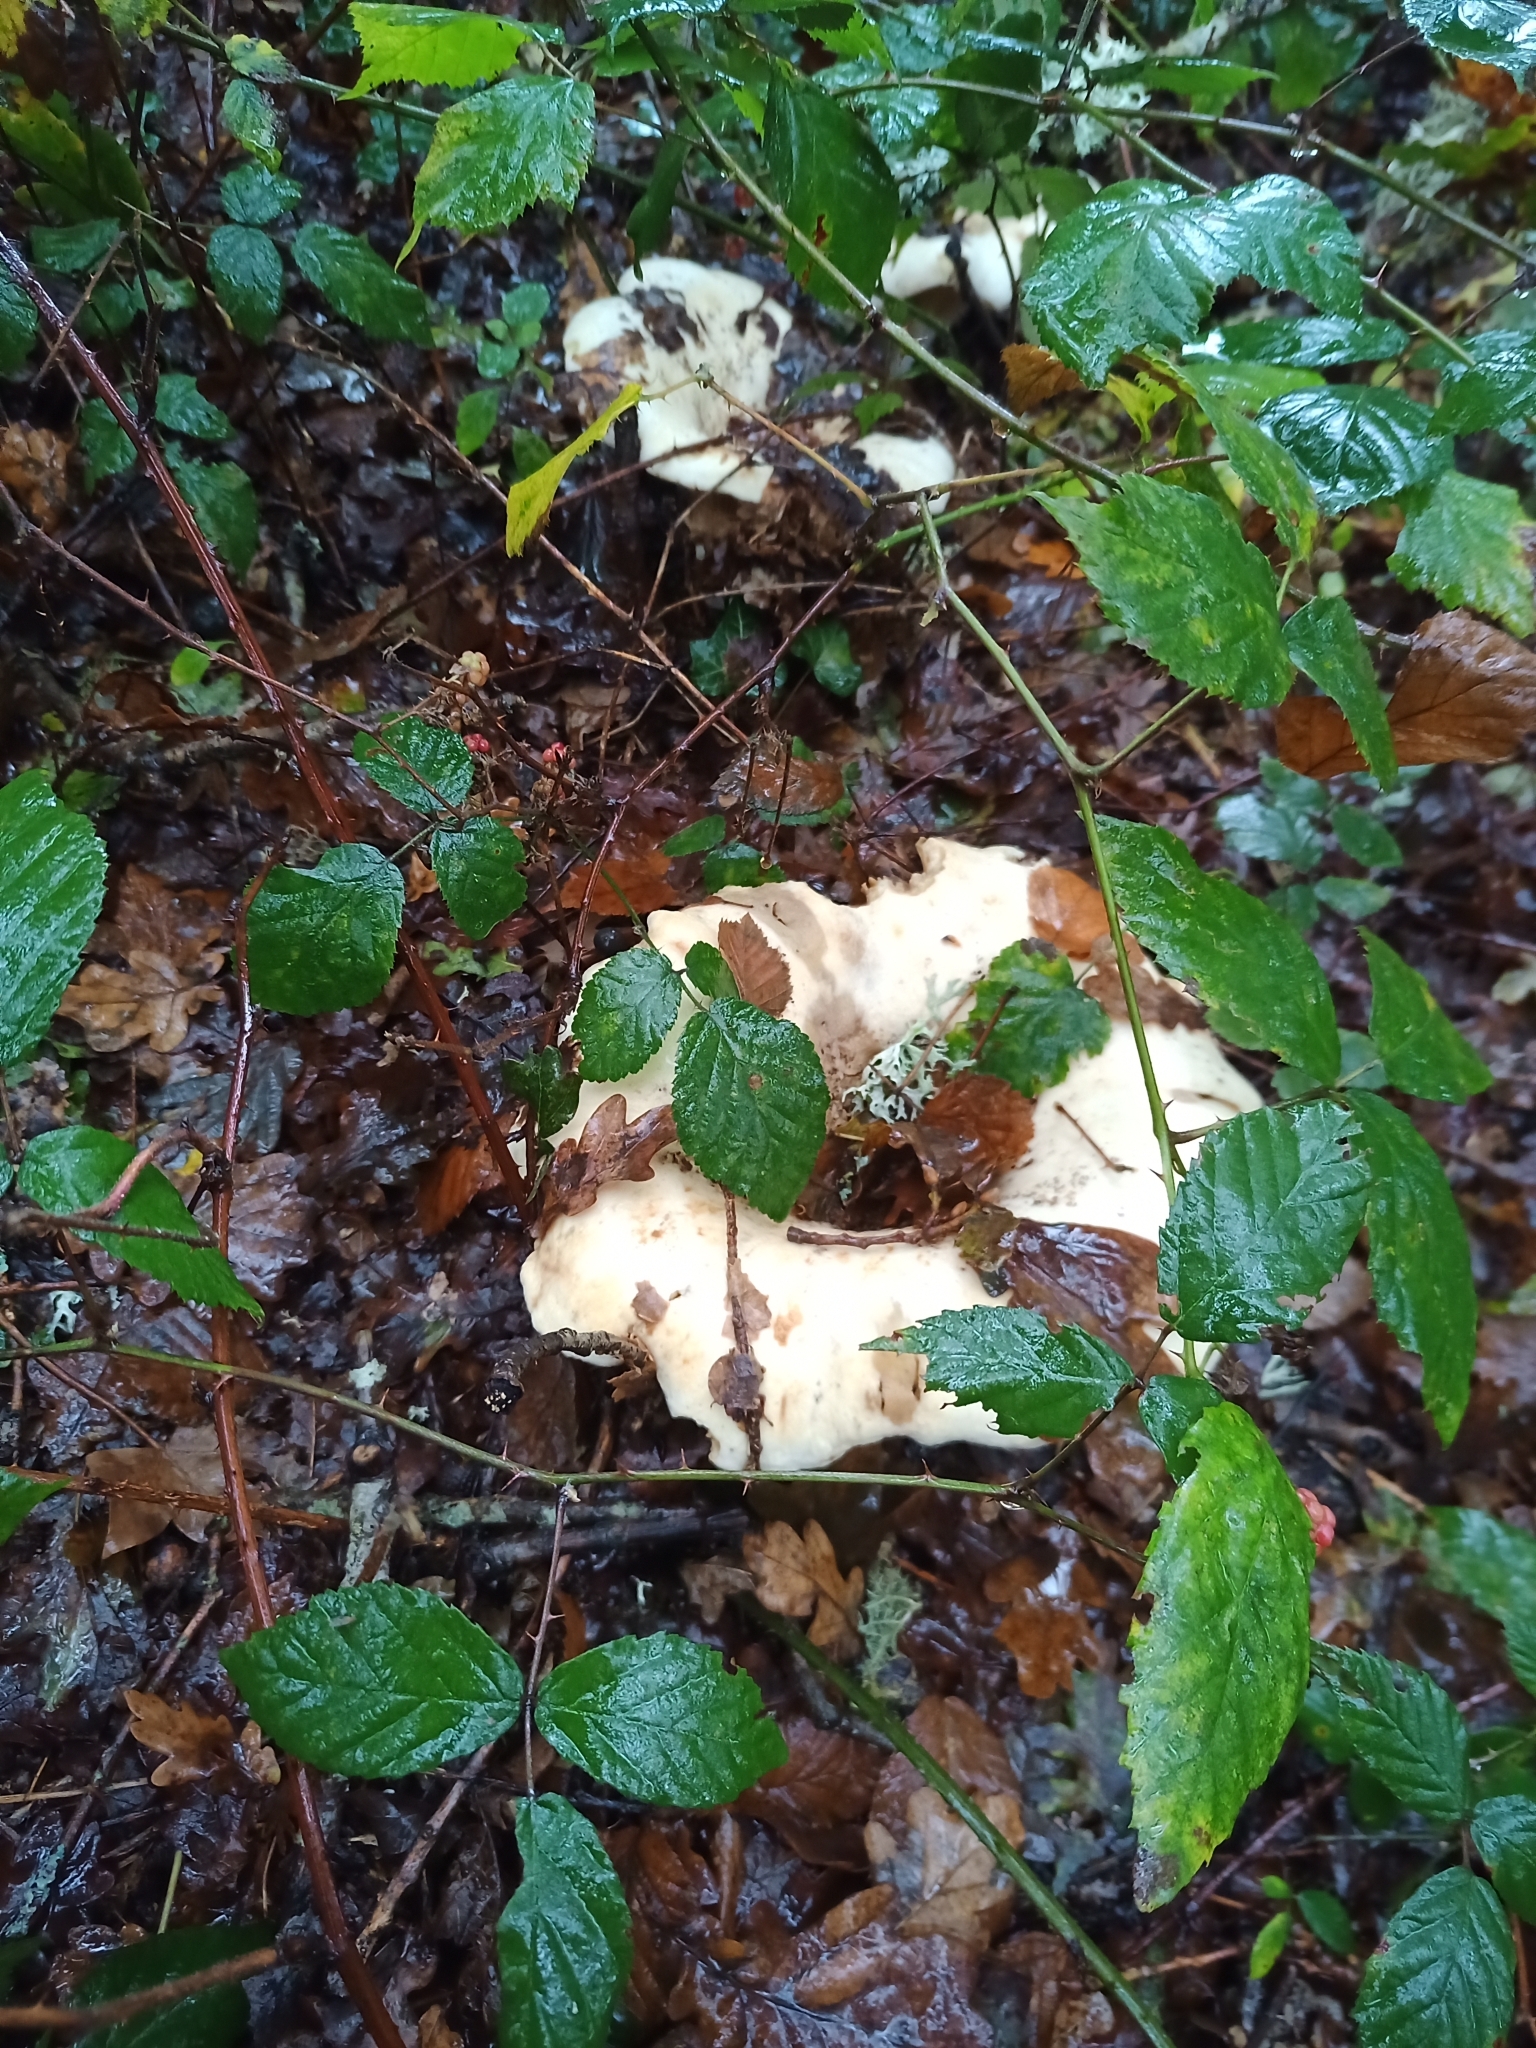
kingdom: Fungi
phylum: Basidiomycota
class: Agaricomycetes
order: Russulales
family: Russulaceae
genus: Lactifluus
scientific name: Lactifluus vellereus
